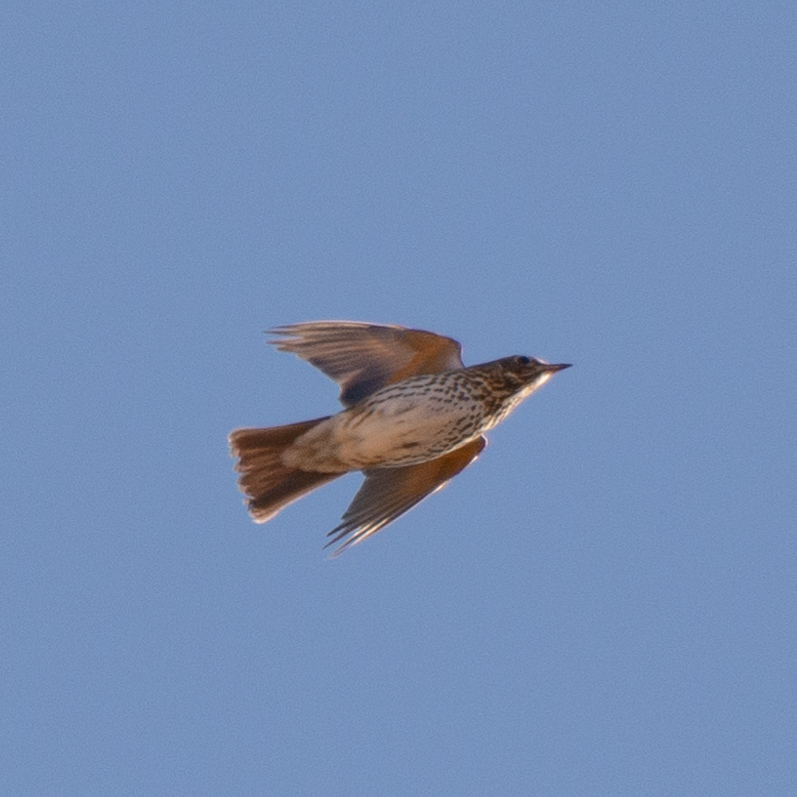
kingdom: Animalia
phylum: Chordata
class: Aves
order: Passeriformes
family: Turdidae
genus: Turdus
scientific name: Turdus philomelos
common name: Song thrush
